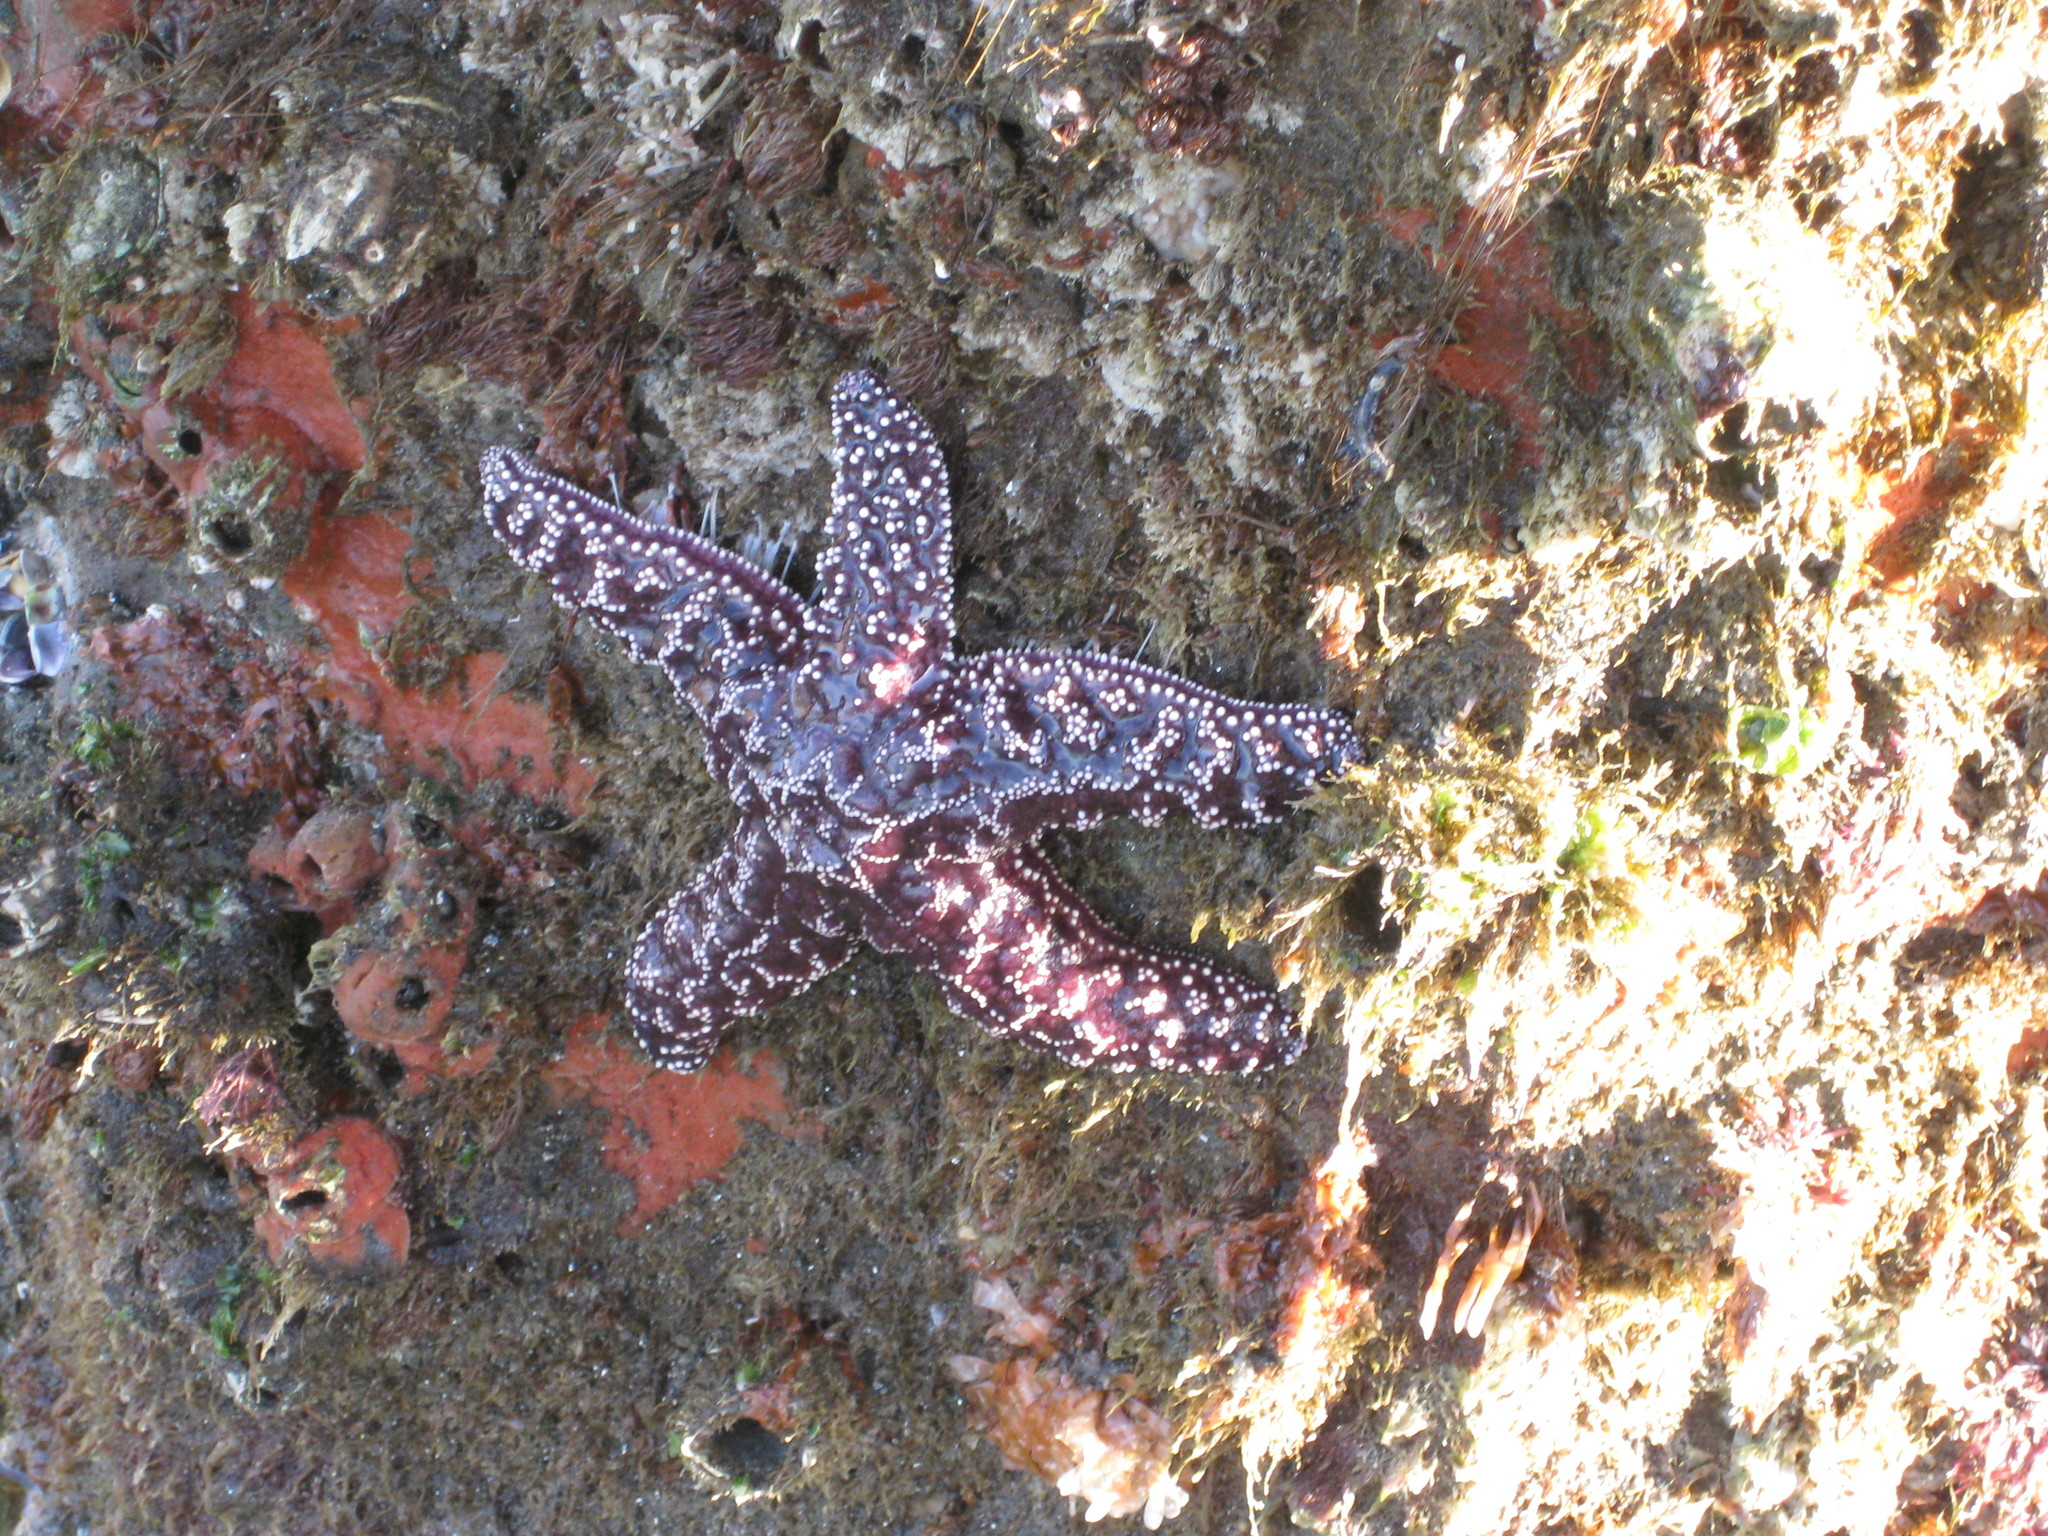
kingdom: Animalia
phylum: Echinodermata
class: Asteroidea
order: Forcipulatida
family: Asteriidae
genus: Pisaster
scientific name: Pisaster ochraceus
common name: Ochre stars
